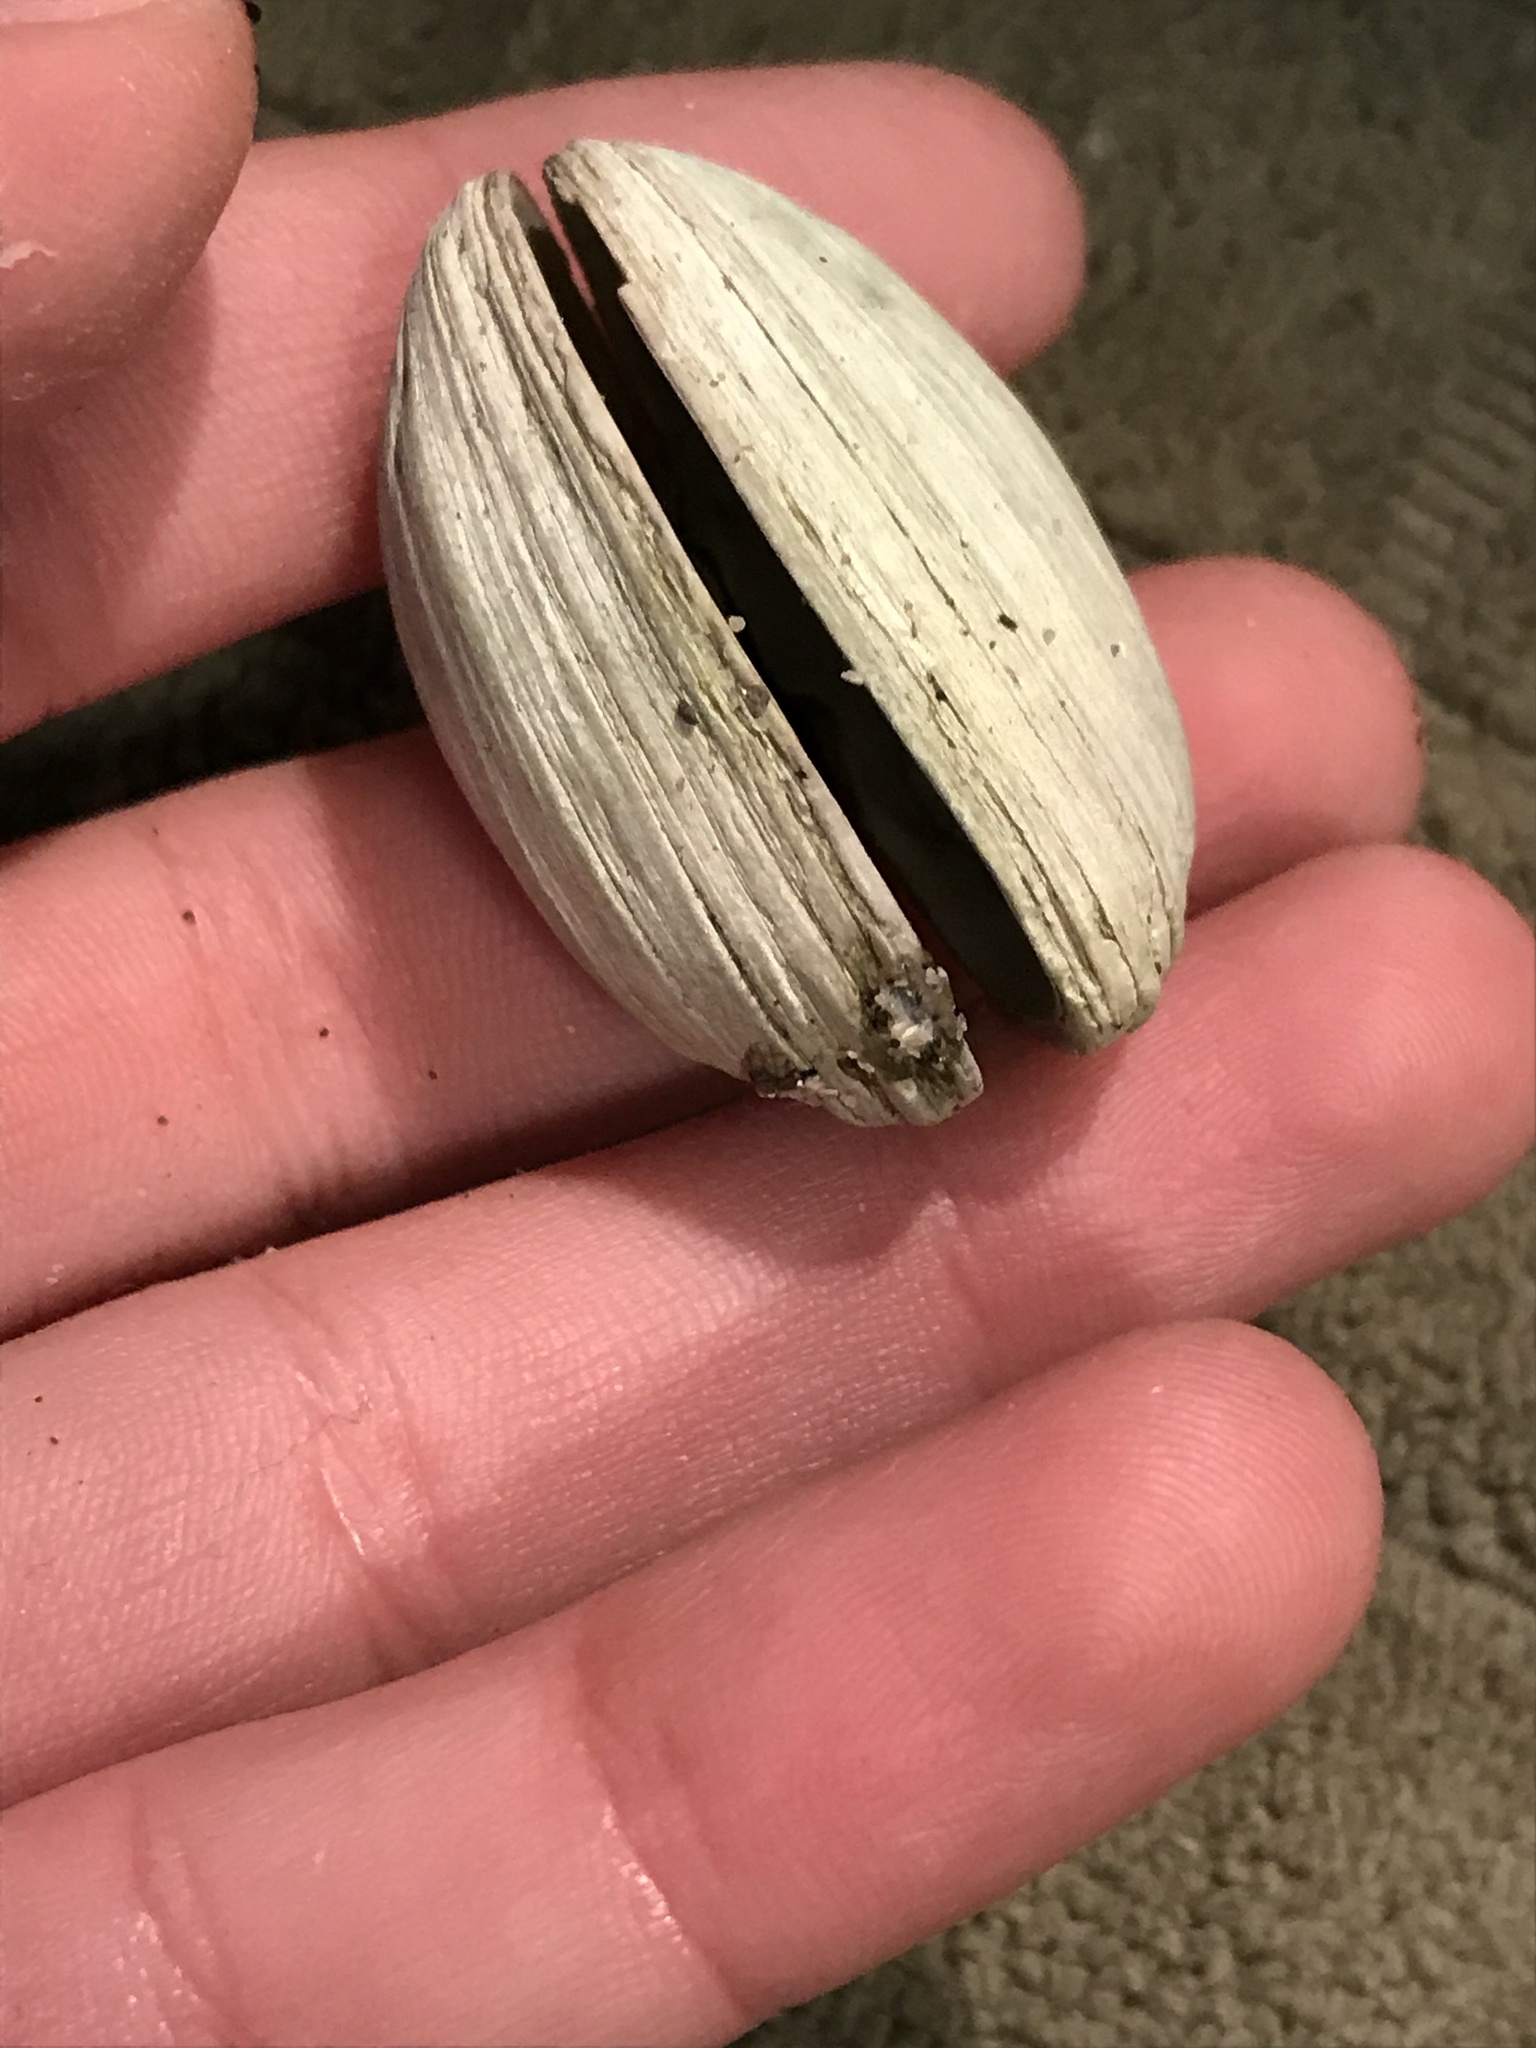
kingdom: Animalia
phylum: Mollusca
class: Bivalvia
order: Venerida
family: Veneridae
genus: Petricola
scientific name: Petricola carditoides
